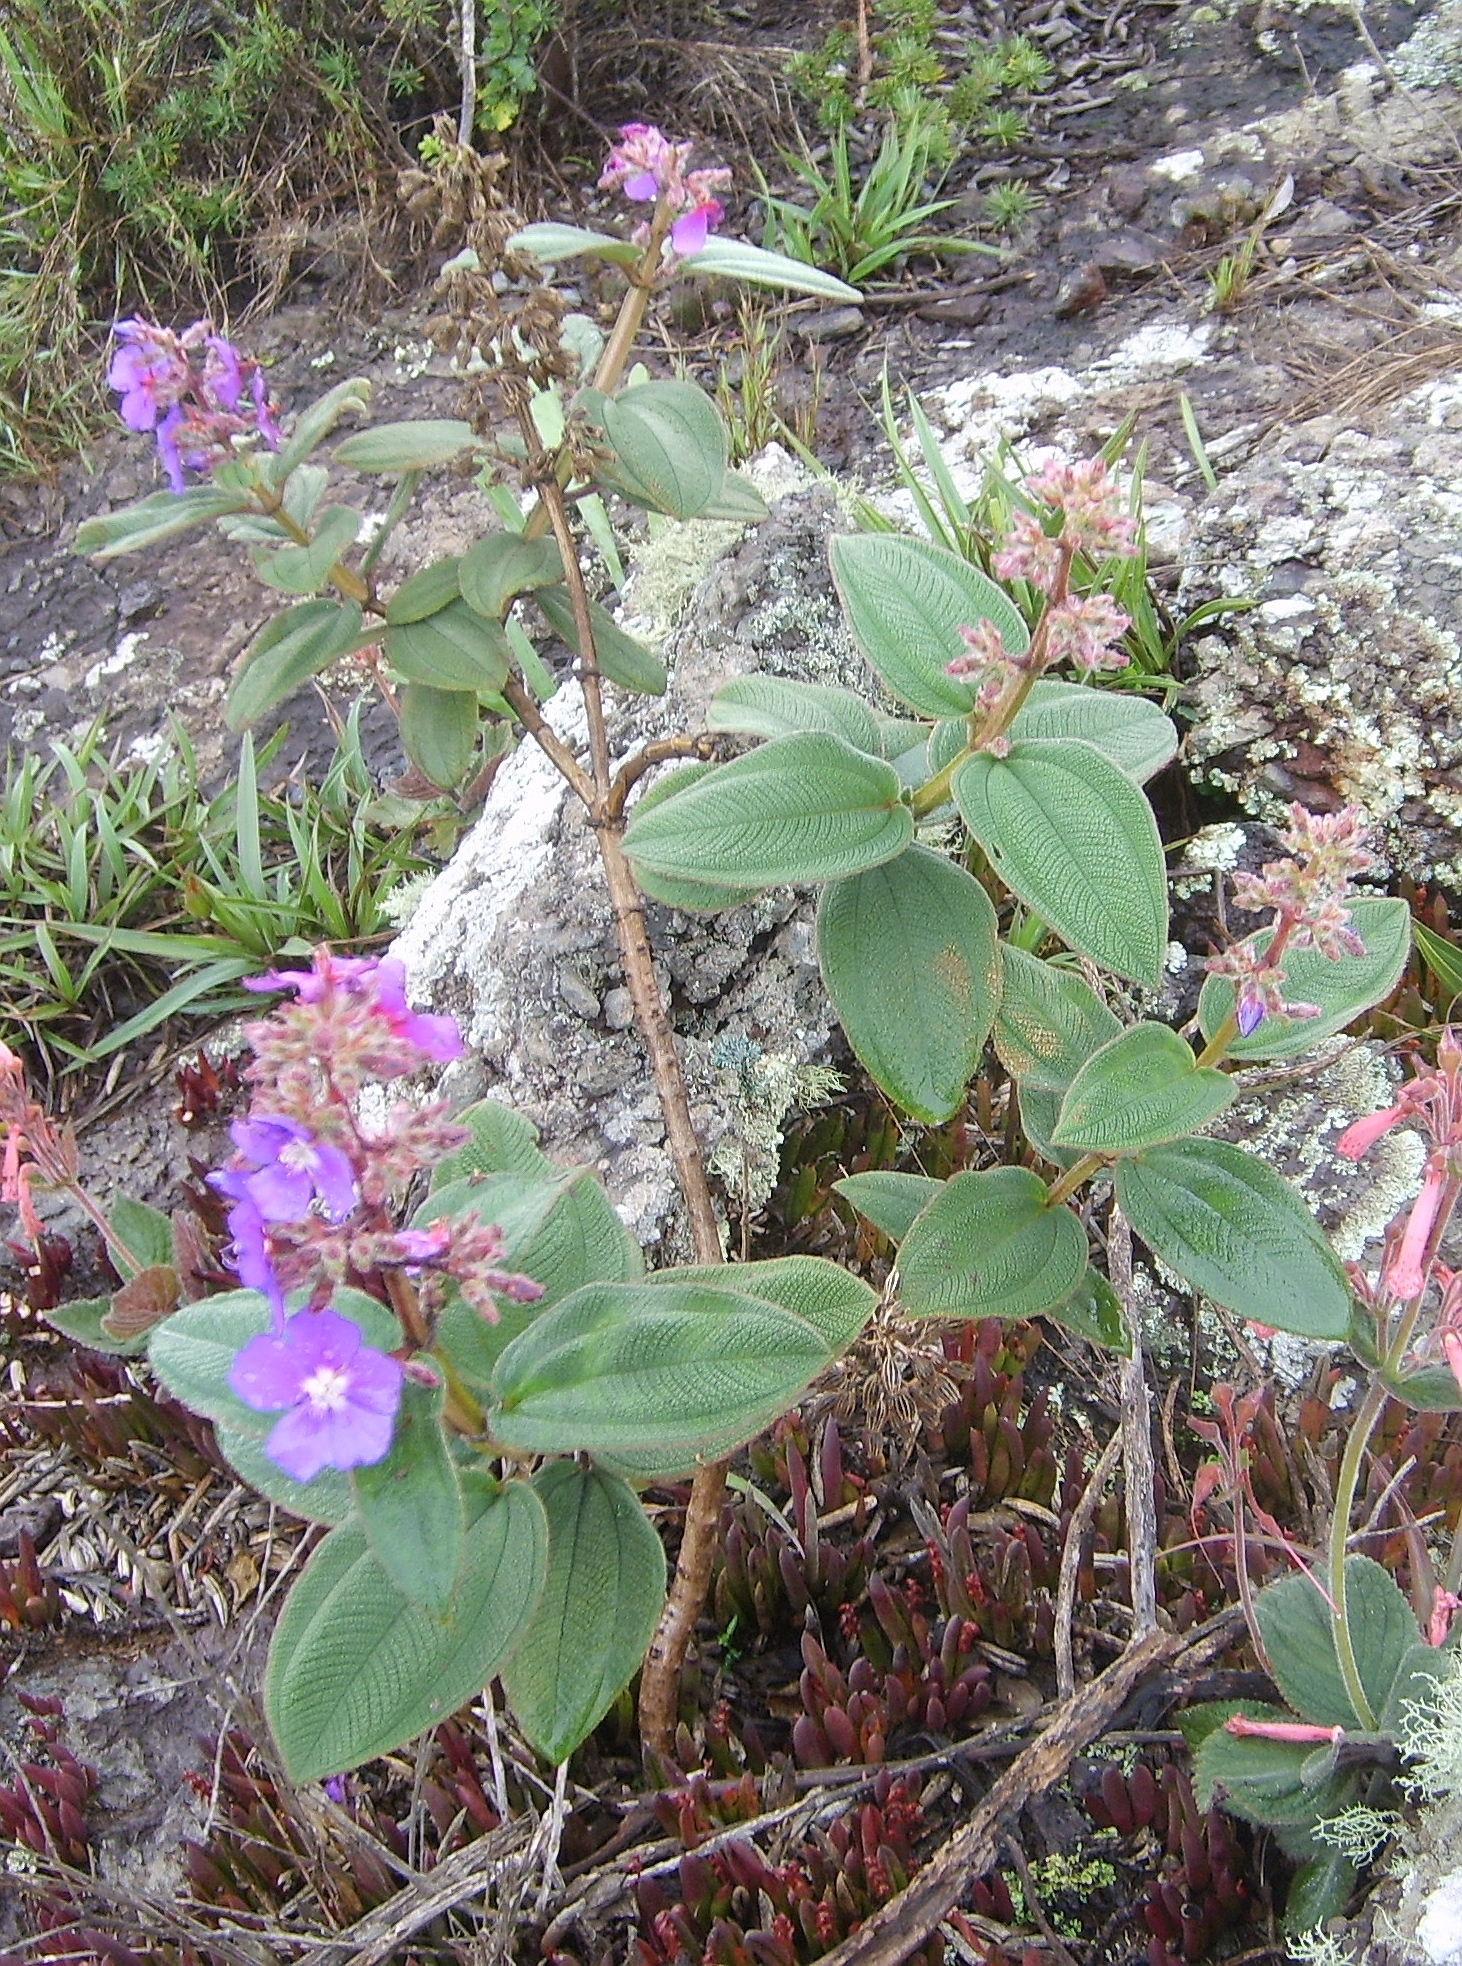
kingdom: Plantae
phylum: Tracheophyta
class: Magnoliopsida
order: Myrtales
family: Melastomataceae
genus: Pleroma
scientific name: Pleroma heteromallum
